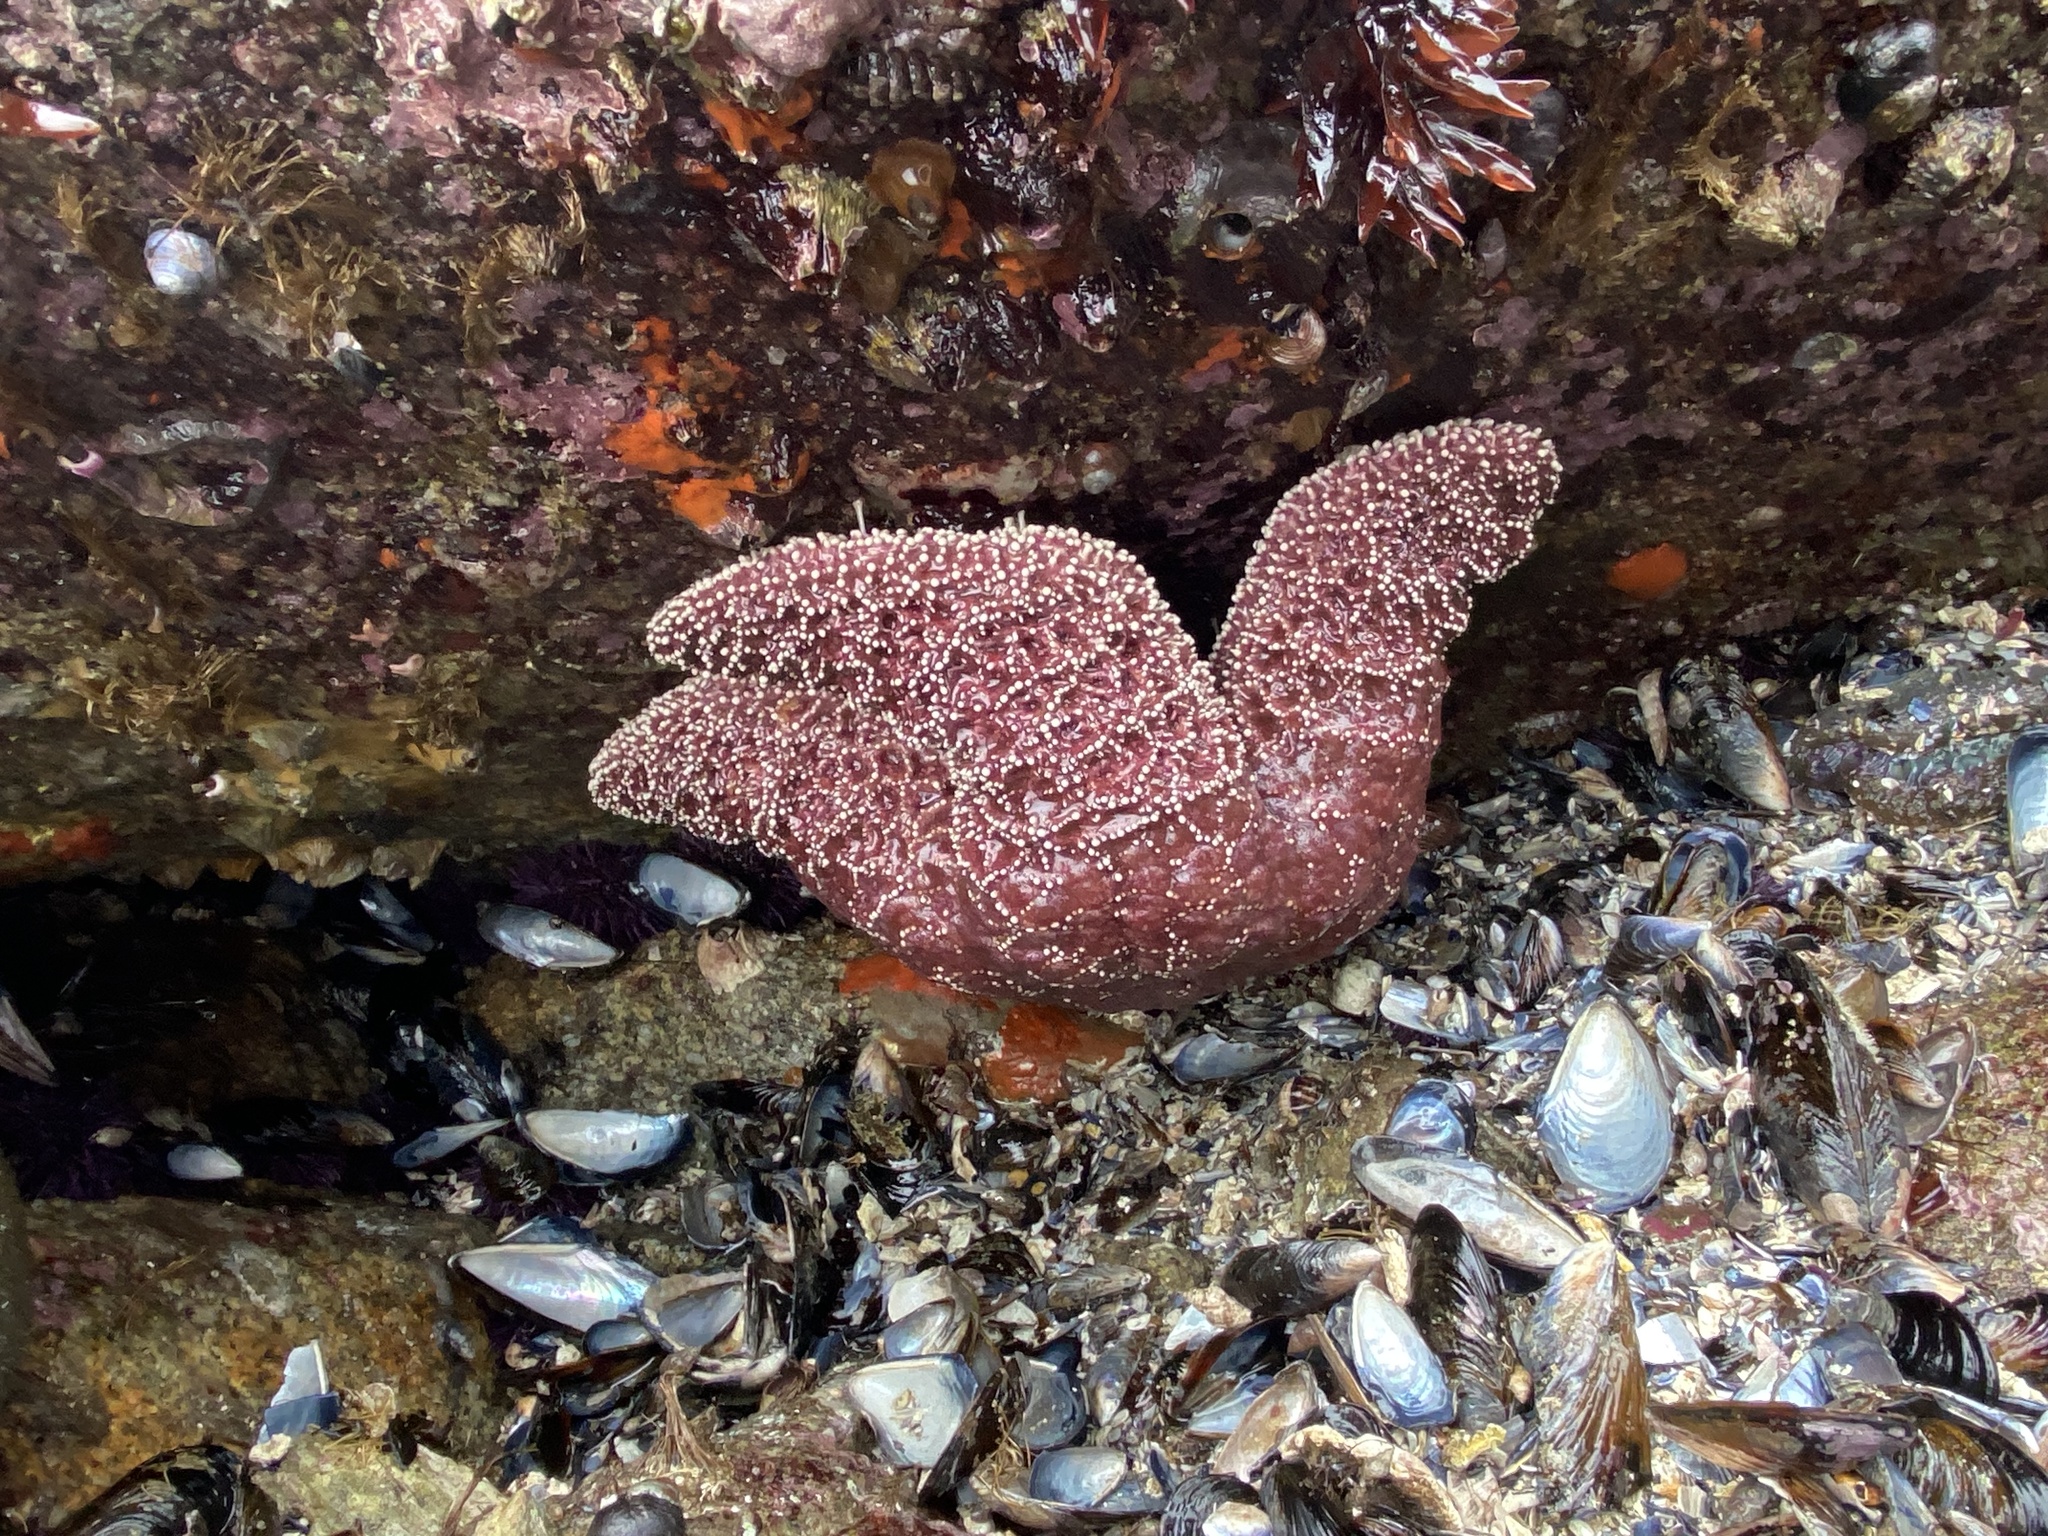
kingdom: Animalia
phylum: Echinodermata
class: Asteroidea
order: Forcipulatida
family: Asteriidae
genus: Pisaster
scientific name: Pisaster ochraceus
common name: Ochre stars
